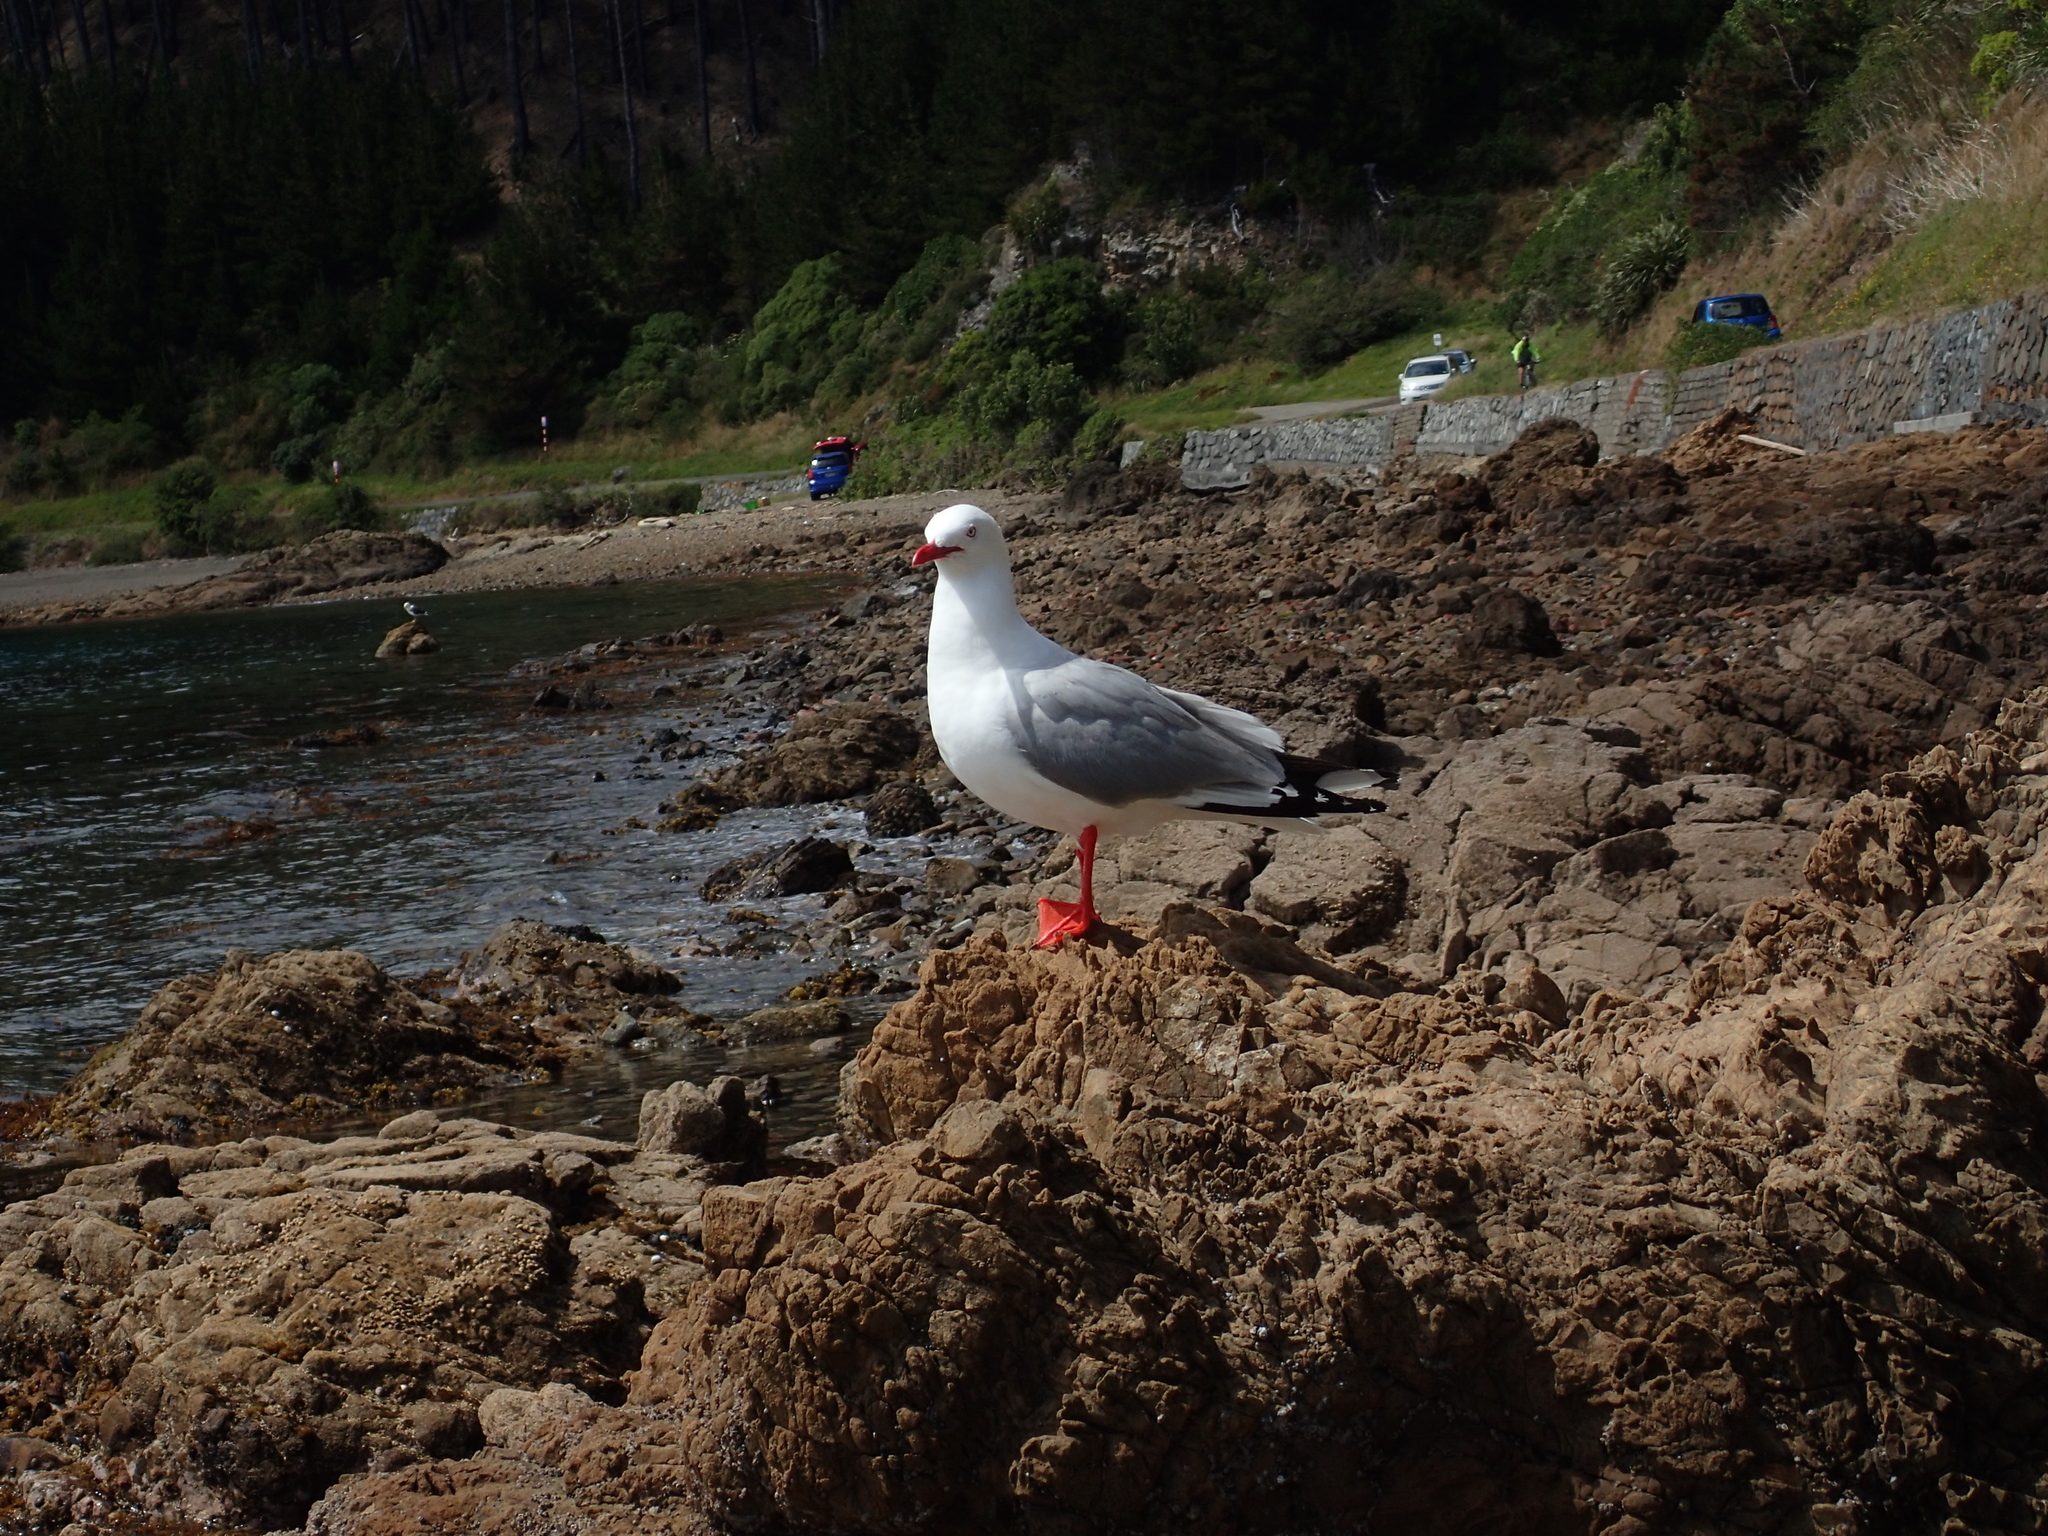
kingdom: Animalia
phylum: Chordata
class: Aves
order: Charadriiformes
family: Laridae
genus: Chroicocephalus
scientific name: Chroicocephalus novaehollandiae
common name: Silver gull
